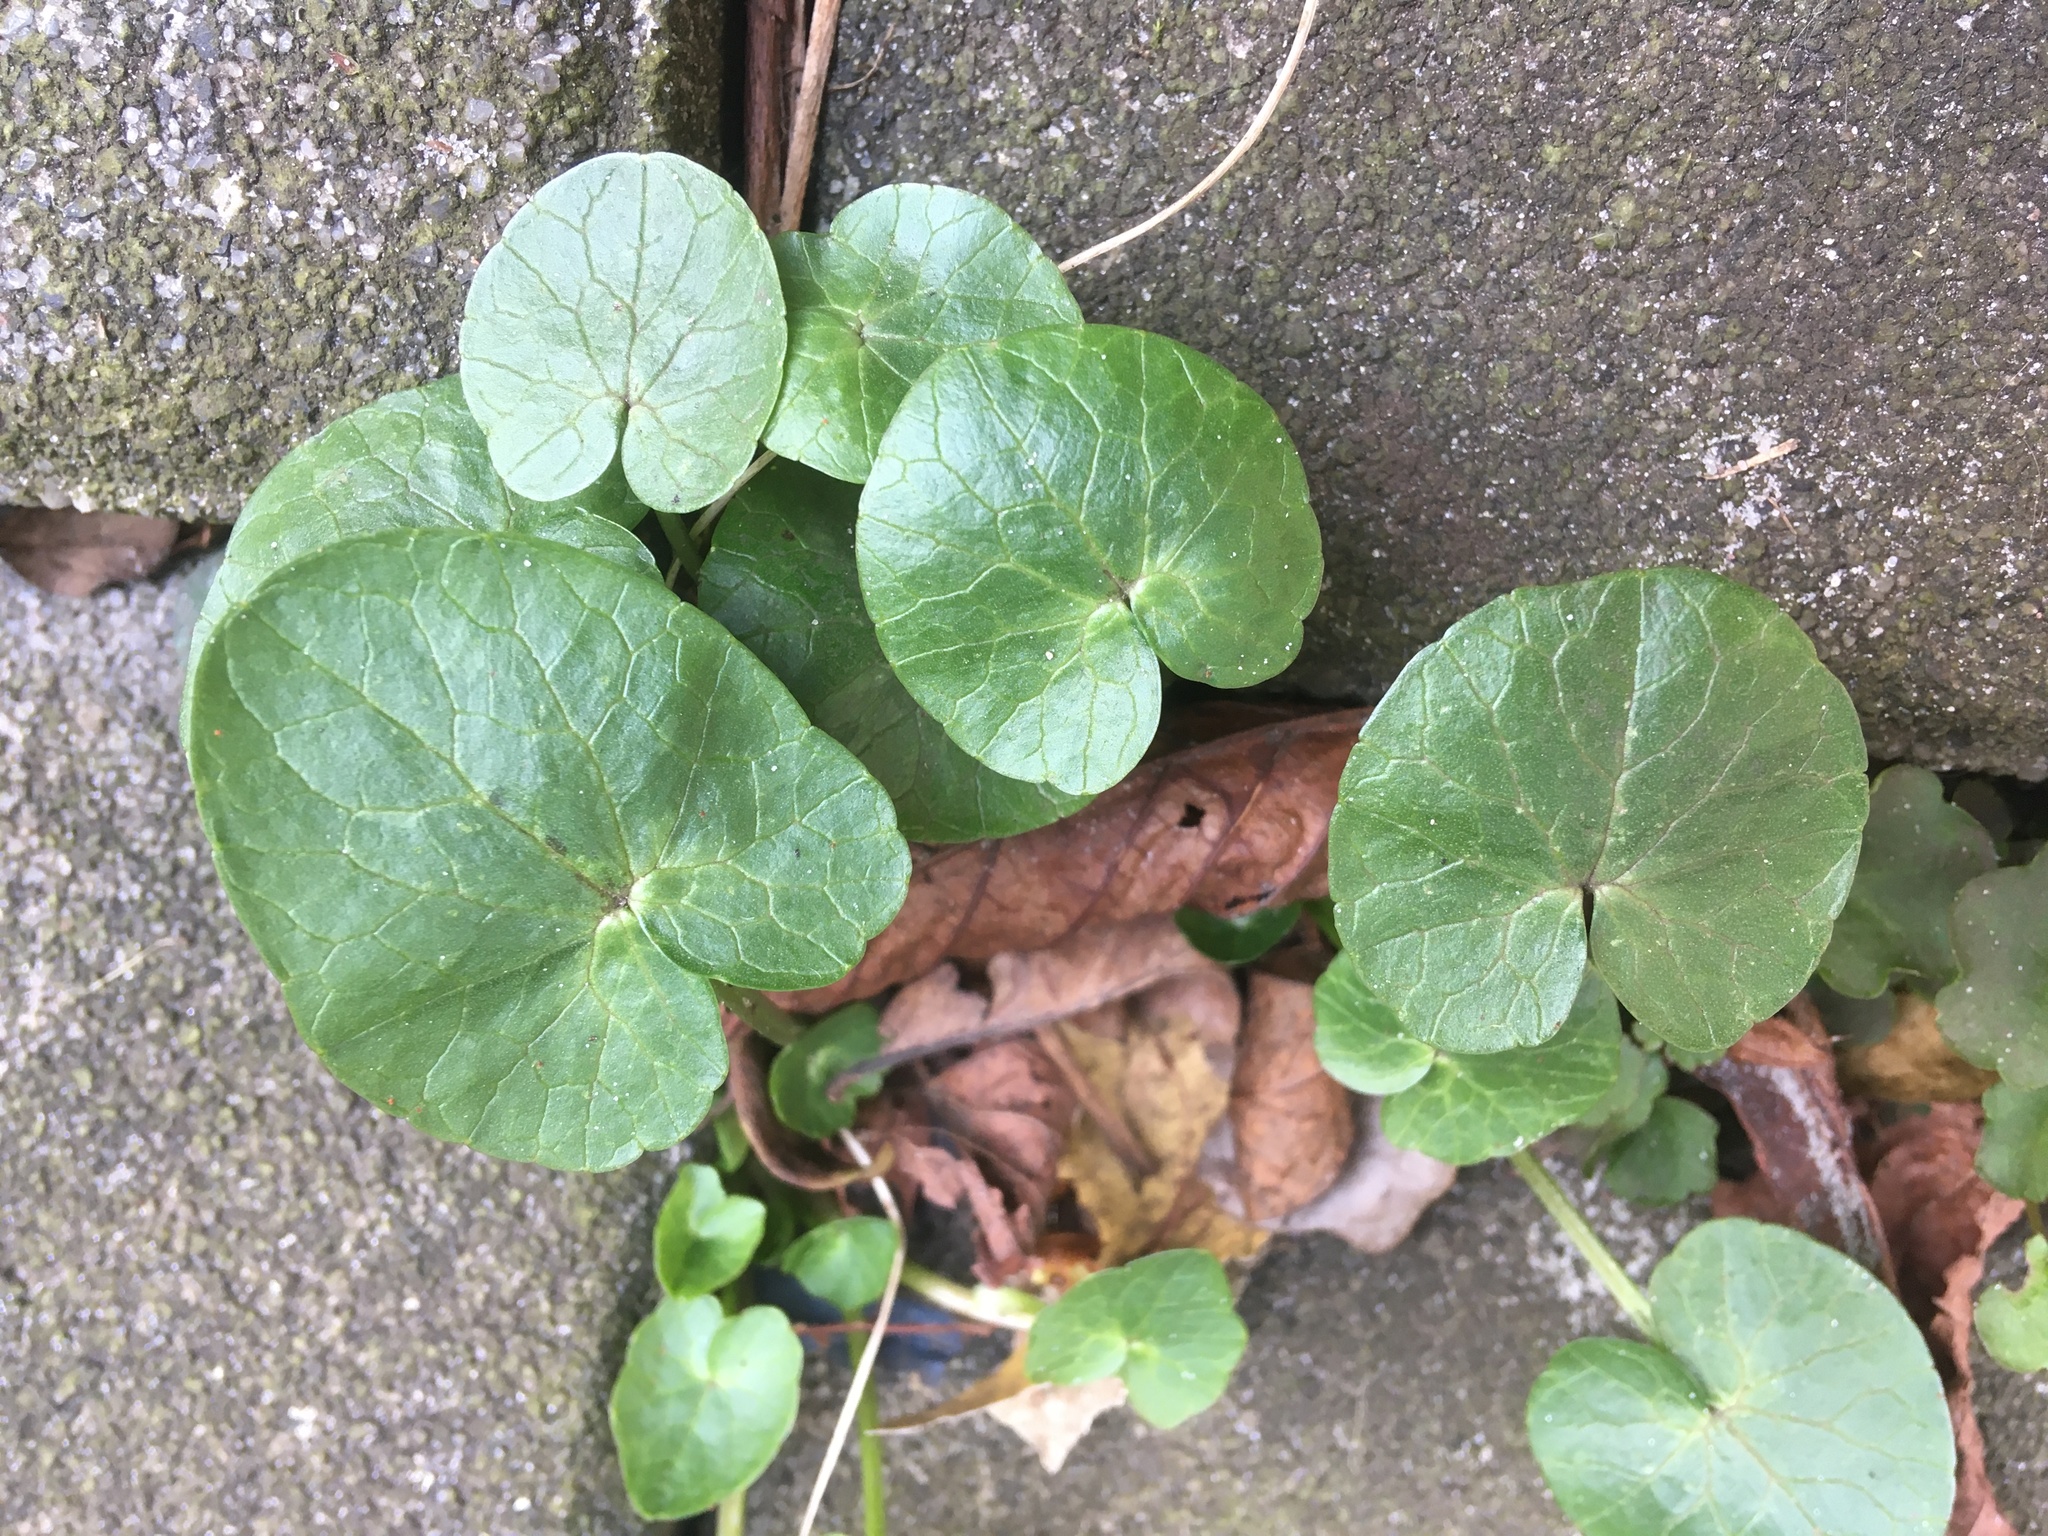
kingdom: Plantae
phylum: Tracheophyta
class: Magnoliopsida
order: Ranunculales
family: Ranunculaceae
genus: Ficaria
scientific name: Ficaria verna
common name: Lesser celandine
